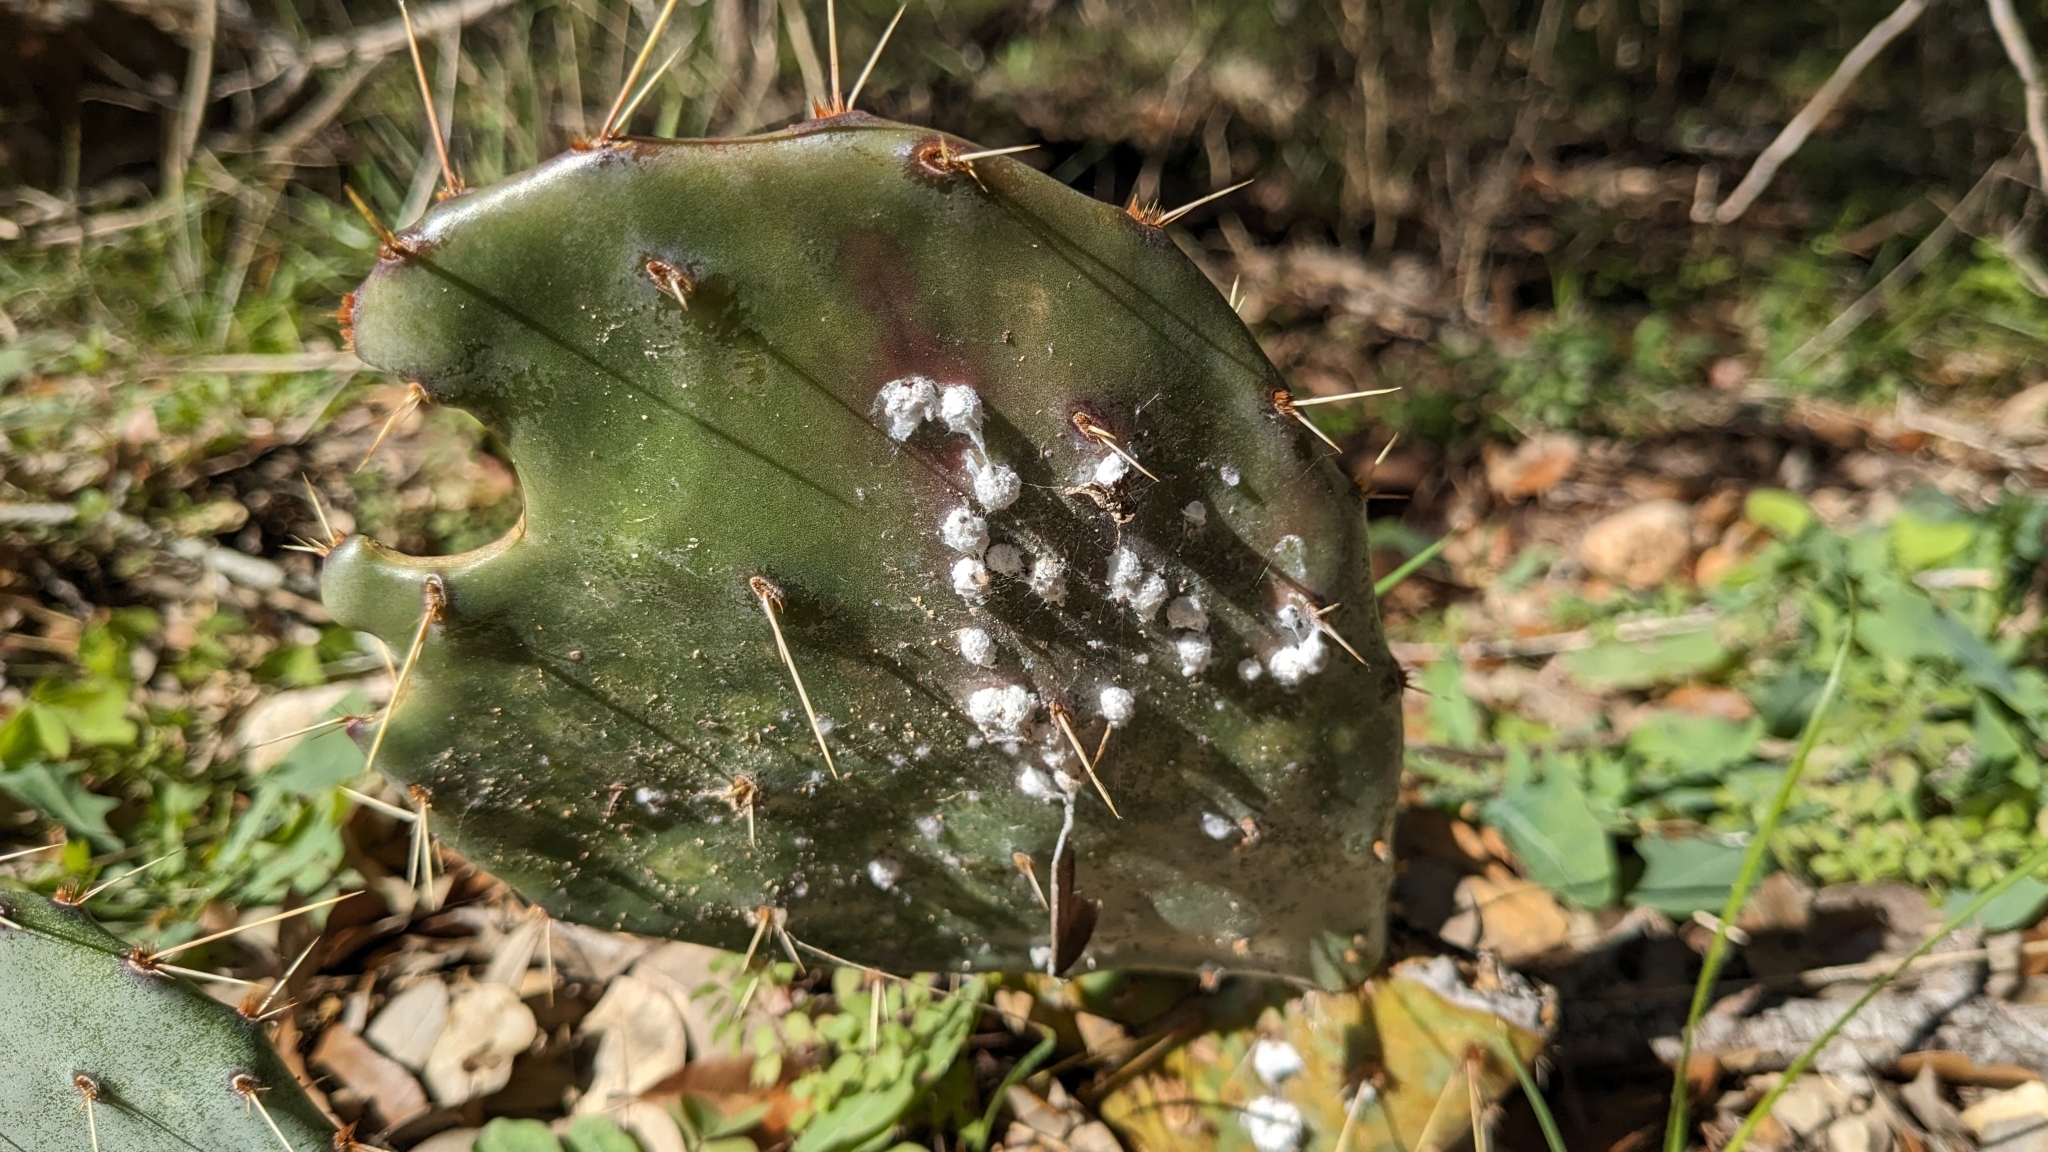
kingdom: Animalia
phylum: Arthropoda
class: Insecta
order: Hemiptera
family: Dactylopiidae
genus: Dactylopius
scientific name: Dactylopius opuntiae
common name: Opuntia cochineal scale
